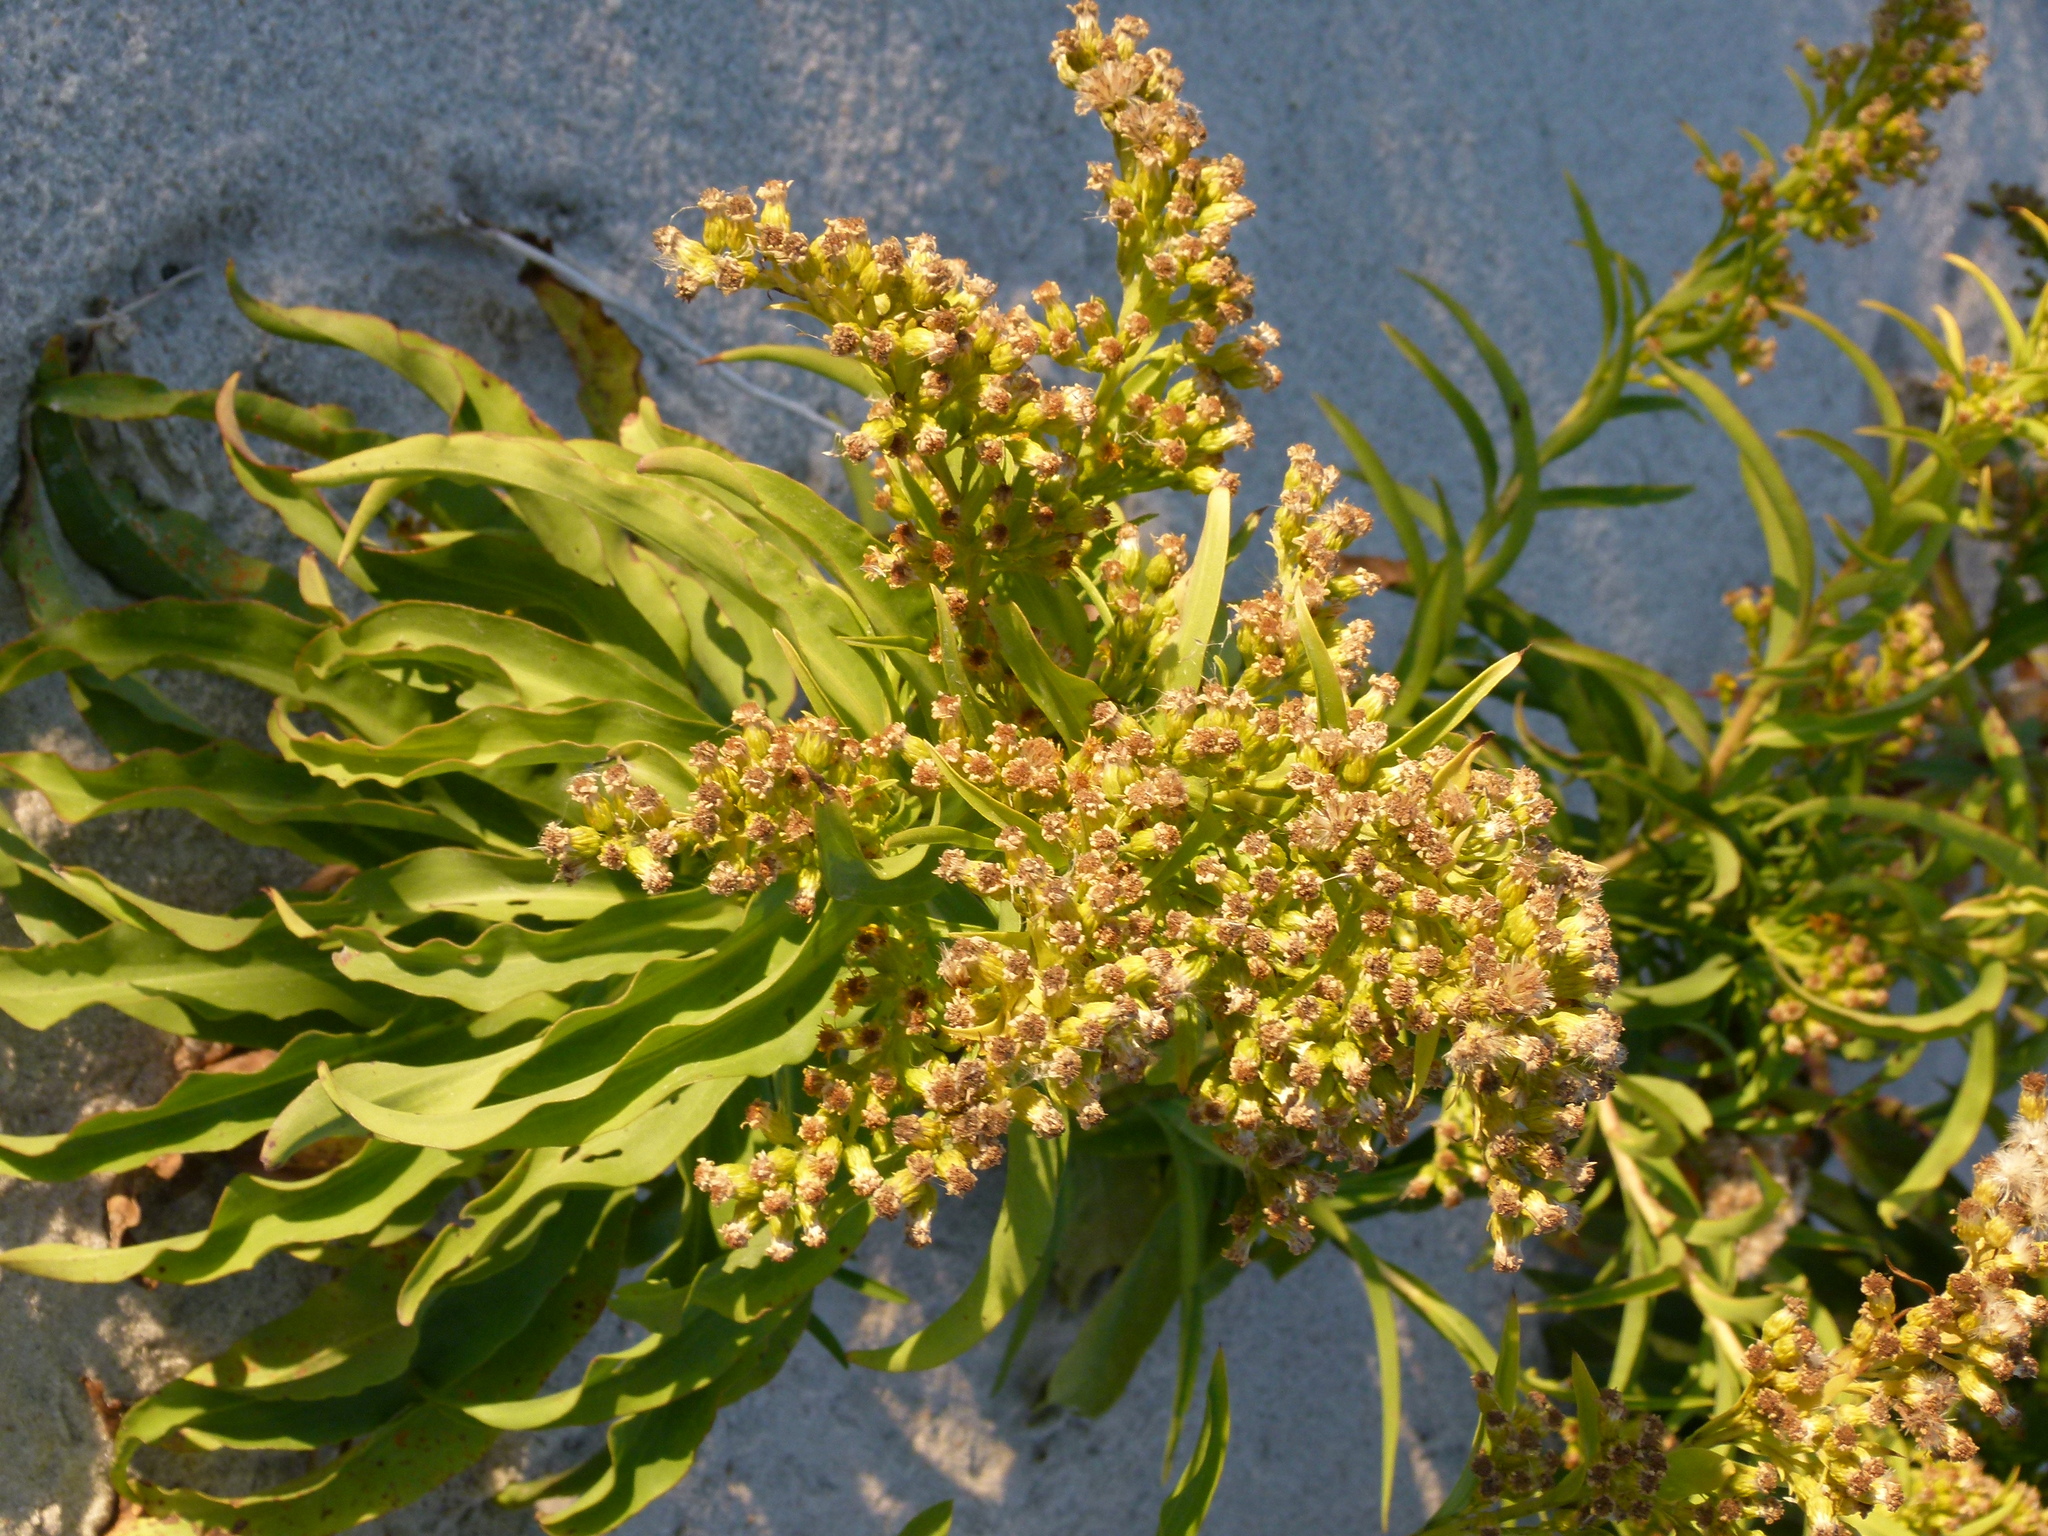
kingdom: Plantae
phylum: Tracheophyta
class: Magnoliopsida
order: Asterales
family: Asteraceae
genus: Solidago
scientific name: Solidago sempervirens
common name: Salt-marsh goldenrod
